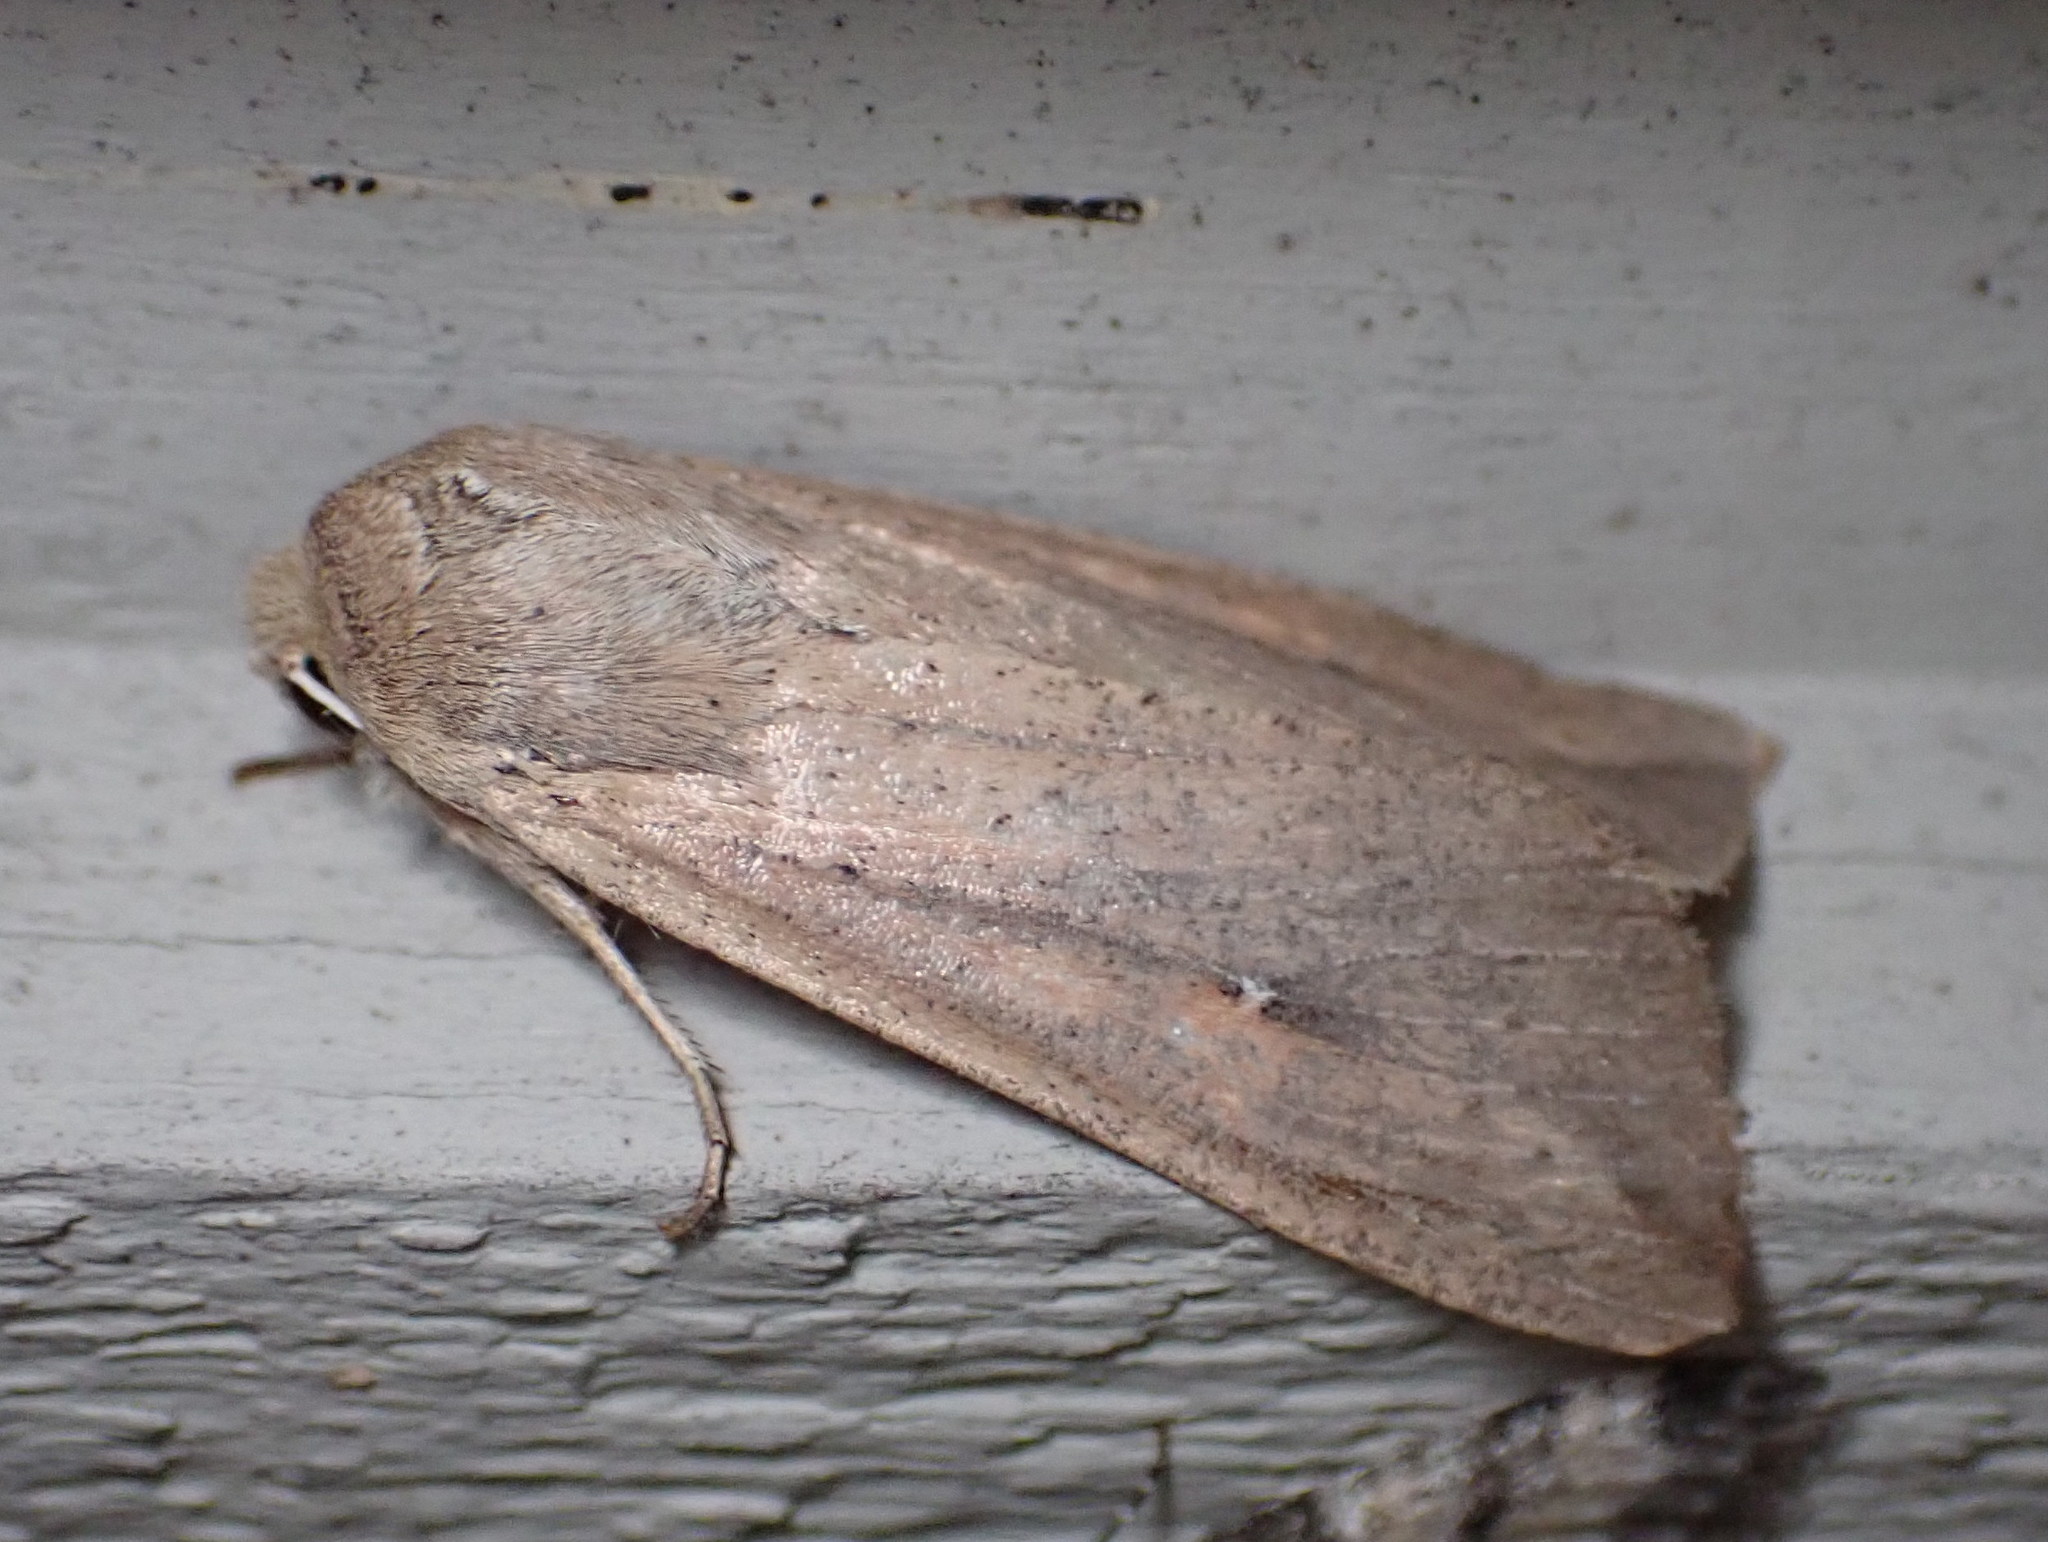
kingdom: Animalia
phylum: Arthropoda
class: Insecta
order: Lepidoptera
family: Noctuidae
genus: Mythimna
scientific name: Mythimna unipuncta
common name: White-speck
